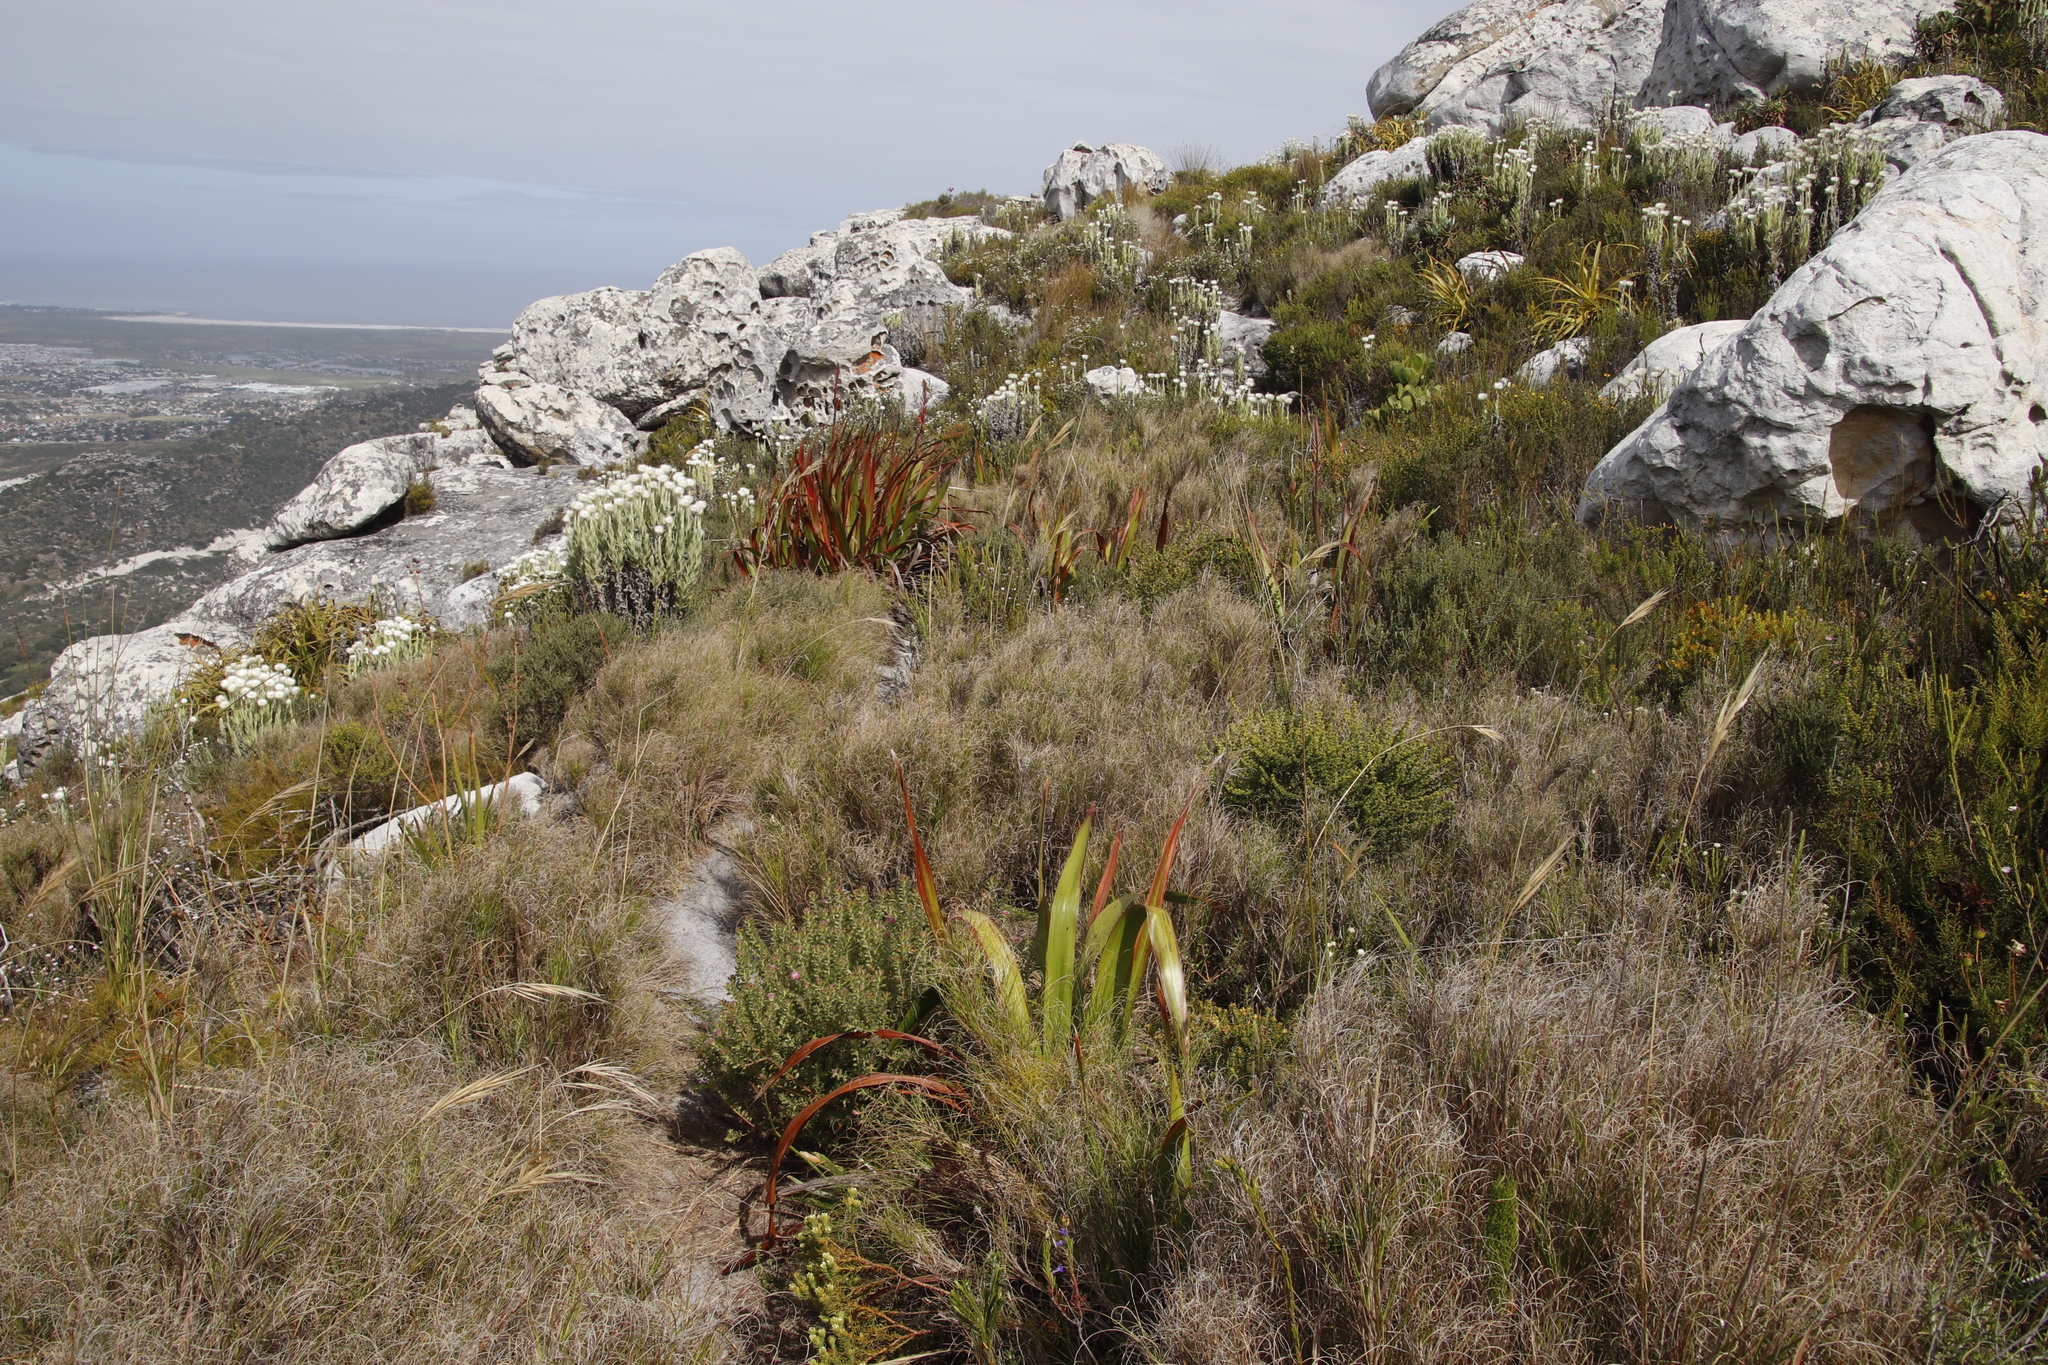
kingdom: Plantae
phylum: Tracheophyta
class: Liliopsida
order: Poales
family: Poaceae
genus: Pseudopentameris
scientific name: Pseudopentameris macrantha
